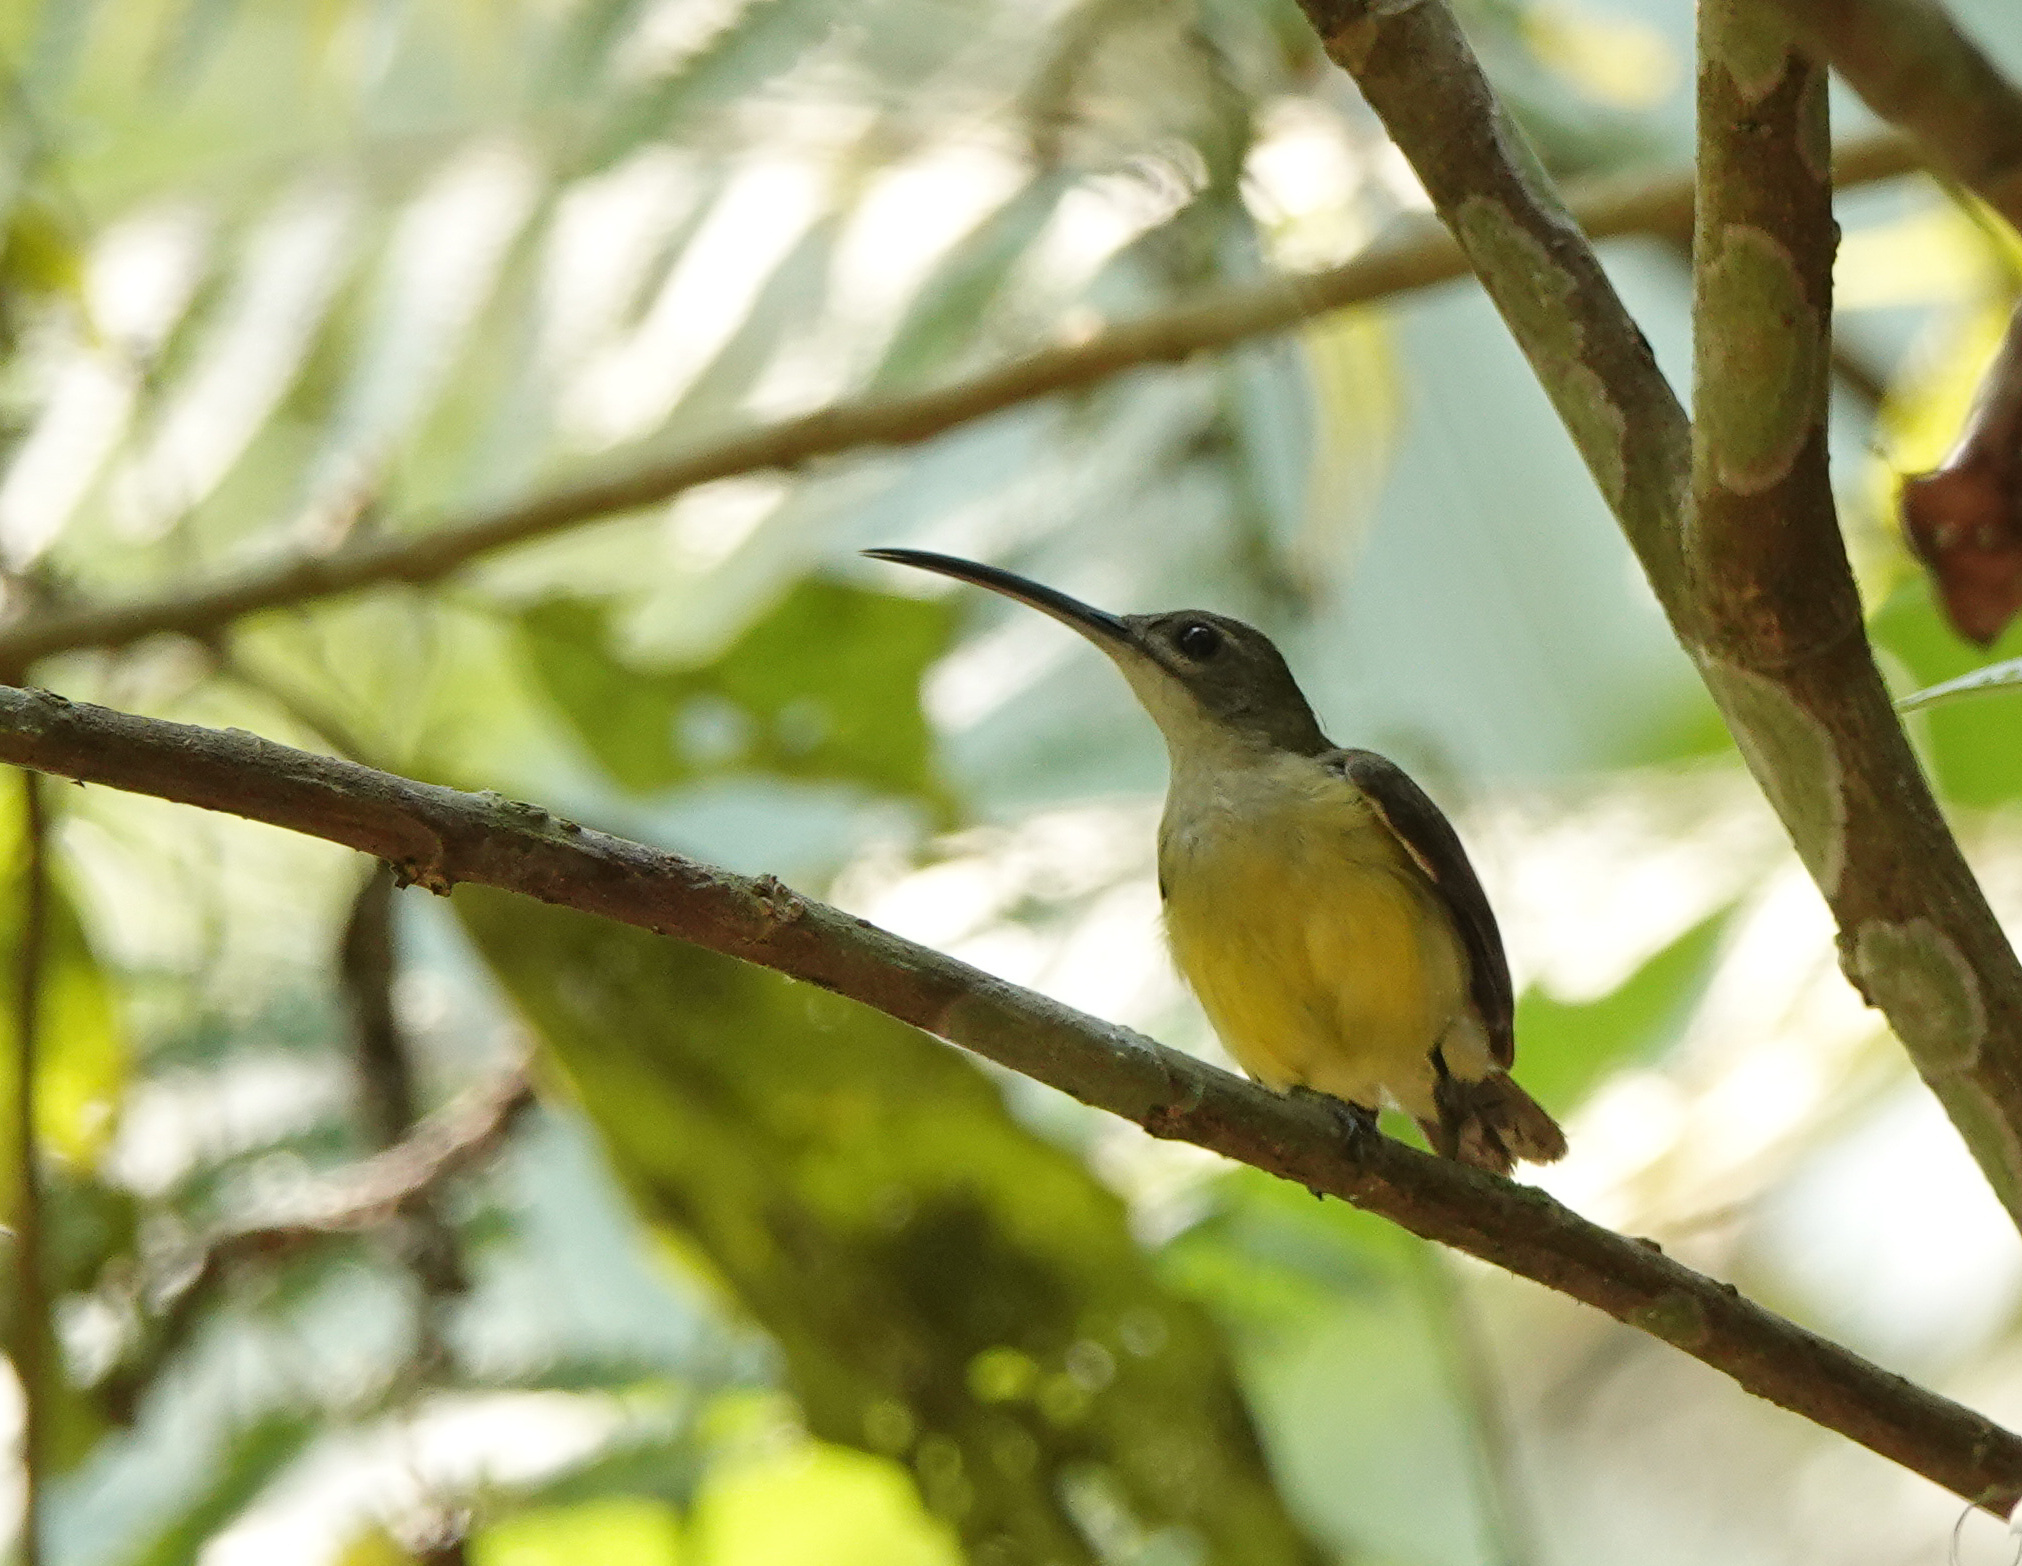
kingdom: Animalia
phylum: Chordata
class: Aves
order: Passeriformes
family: Nectariniidae
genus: Arachnothera
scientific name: Arachnothera longirostra
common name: Little spiderhunter
